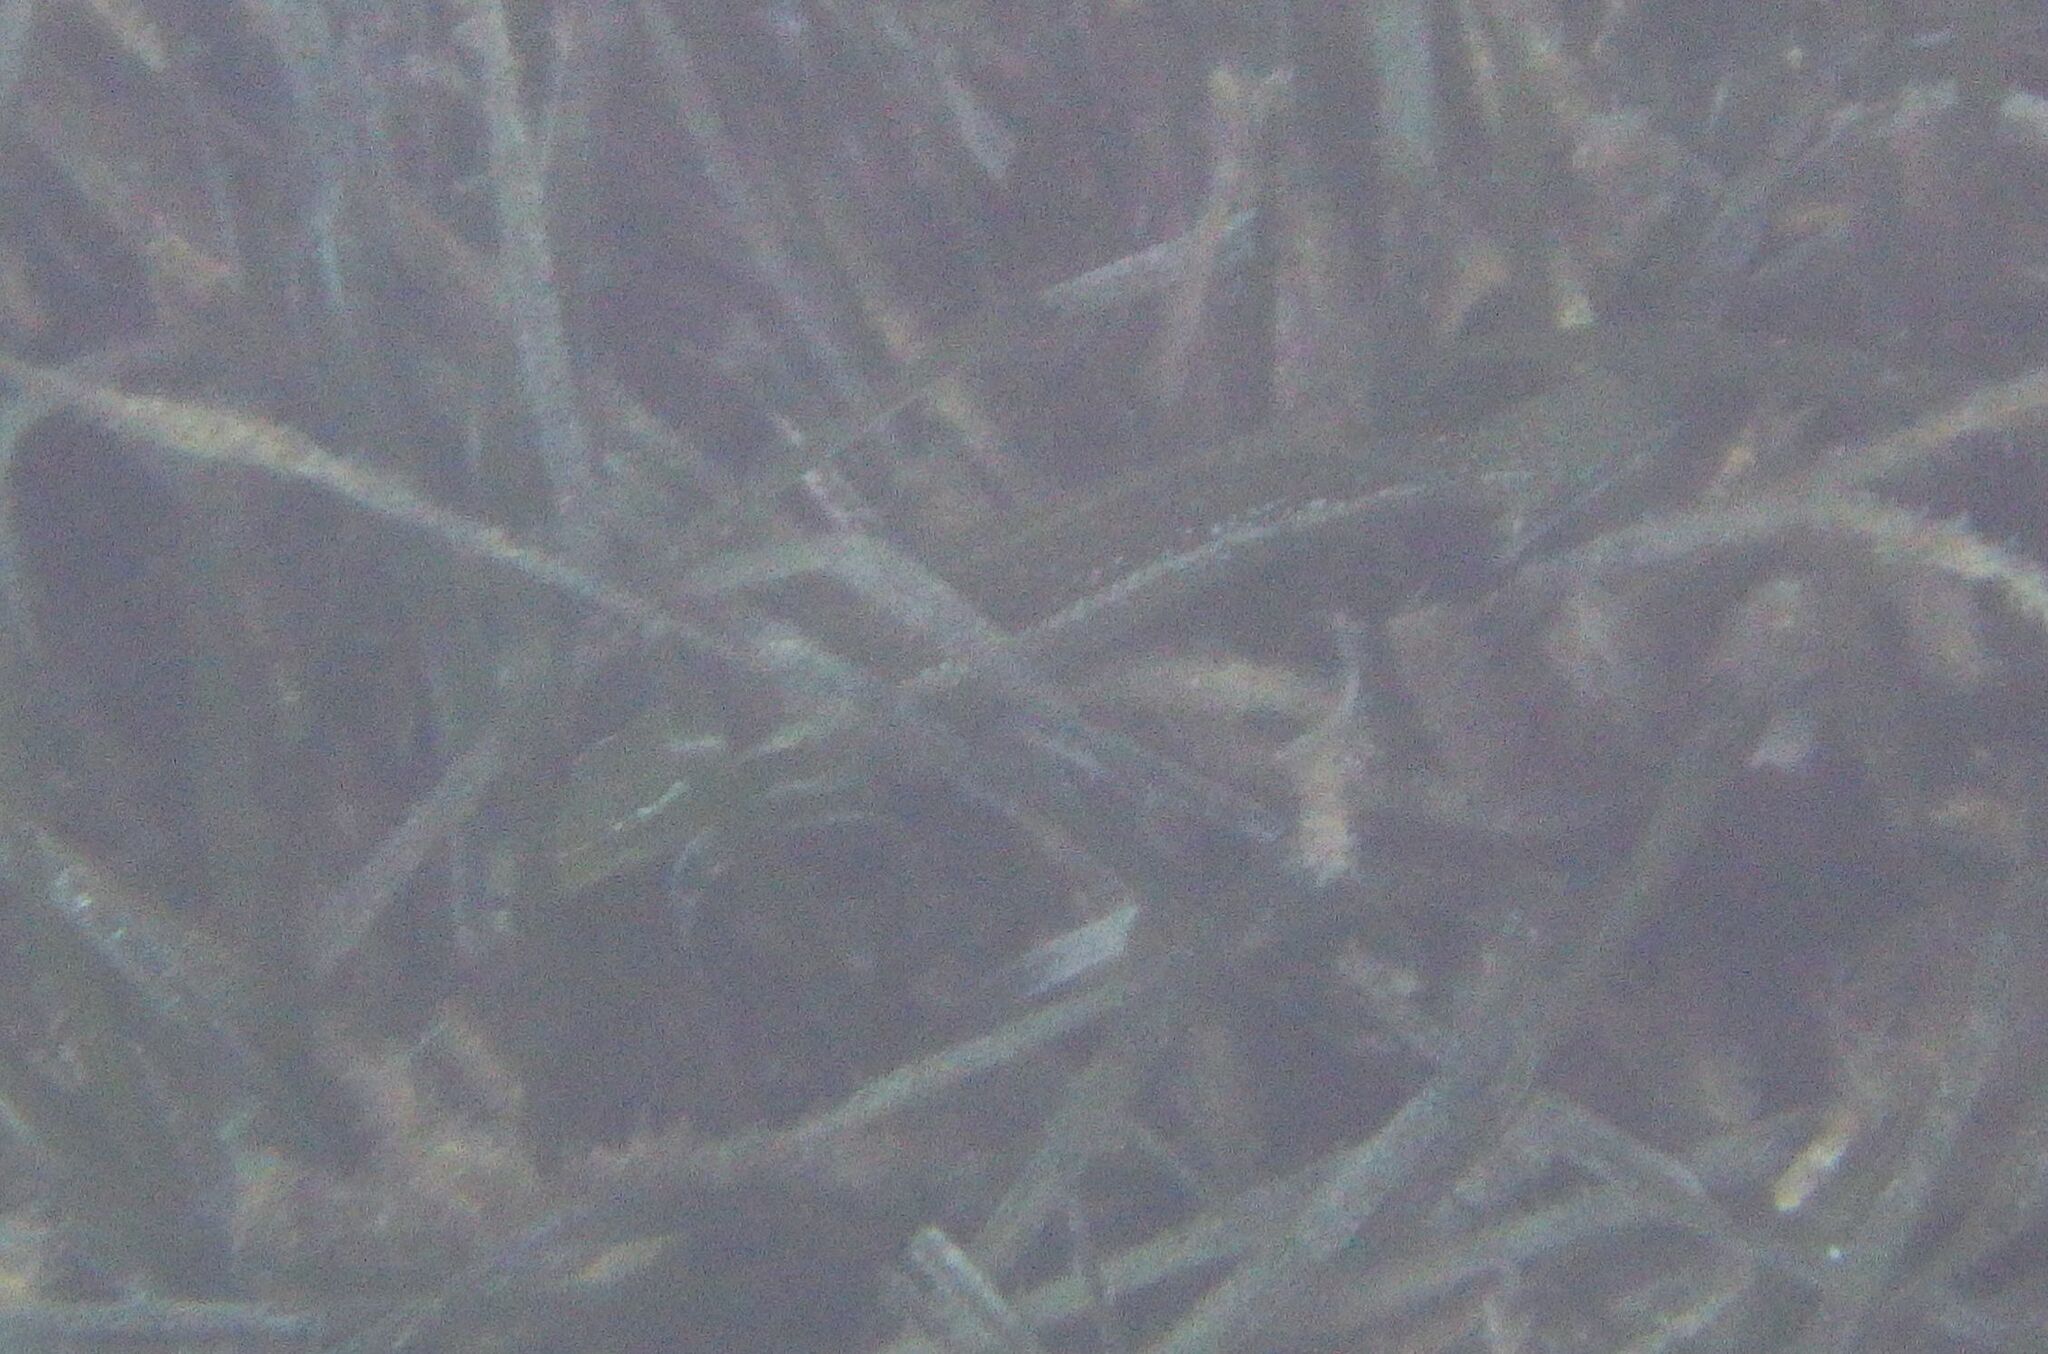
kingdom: Animalia
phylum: Chordata
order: Perciformes
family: Labridae
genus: Labrus
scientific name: Labrus viridis
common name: Green wrasse
